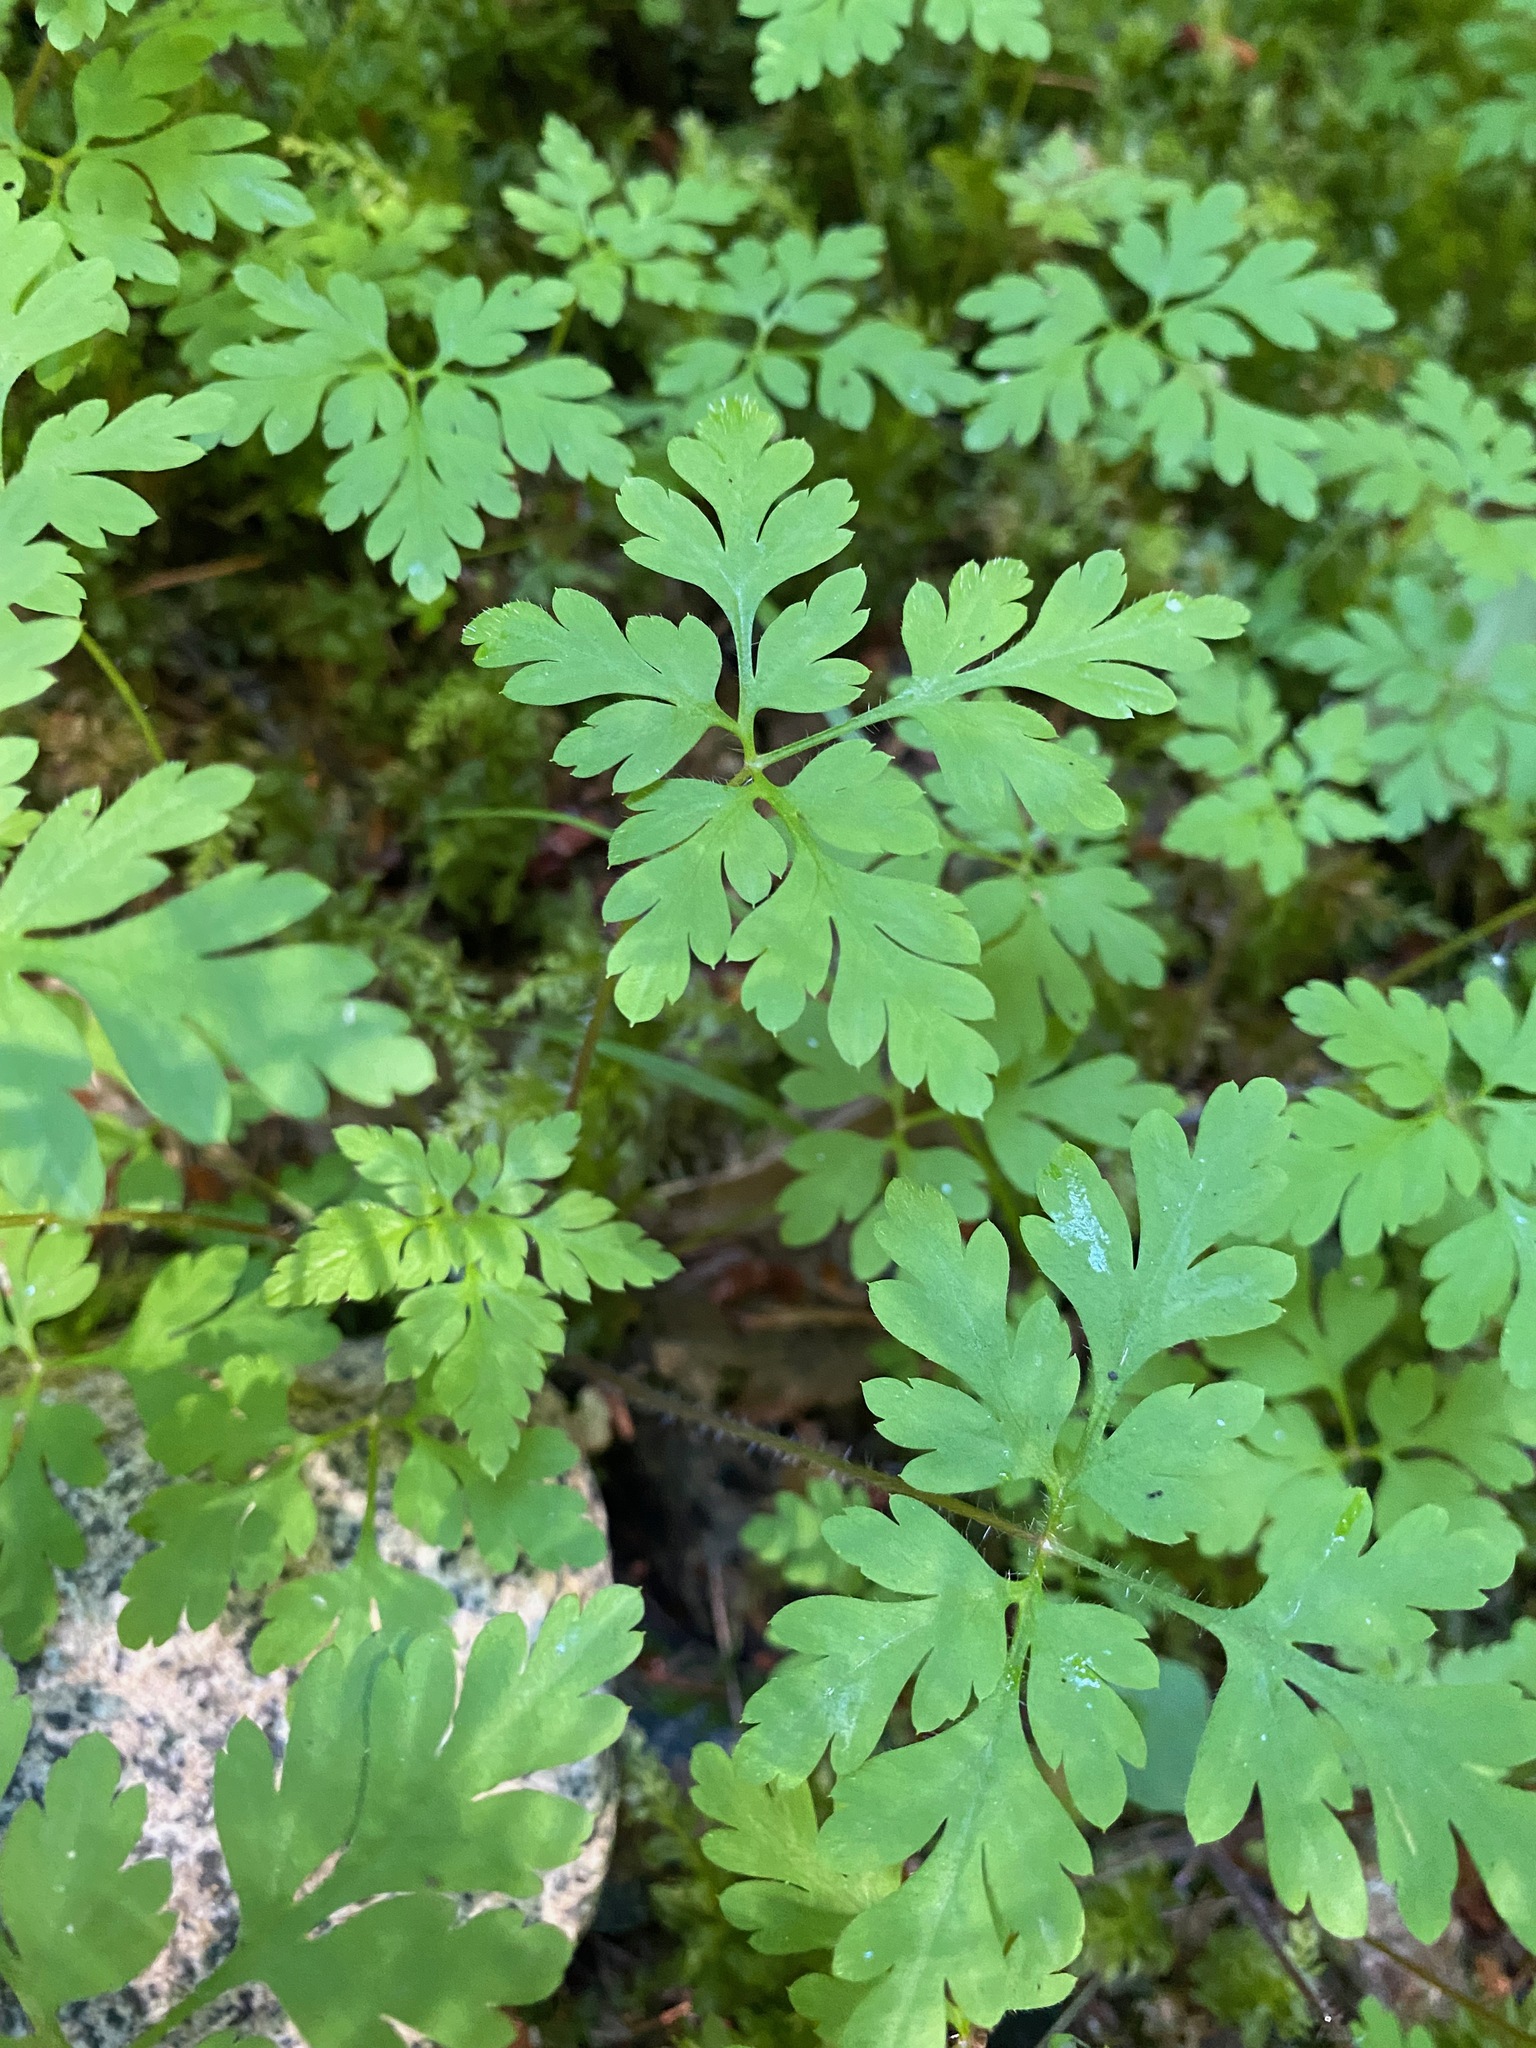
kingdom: Plantae
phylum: Tracheophyta
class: Magnoliopsida
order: Geraniales
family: Geraniaceae
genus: Geranium
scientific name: Geranium robertianum
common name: Herb-robert
